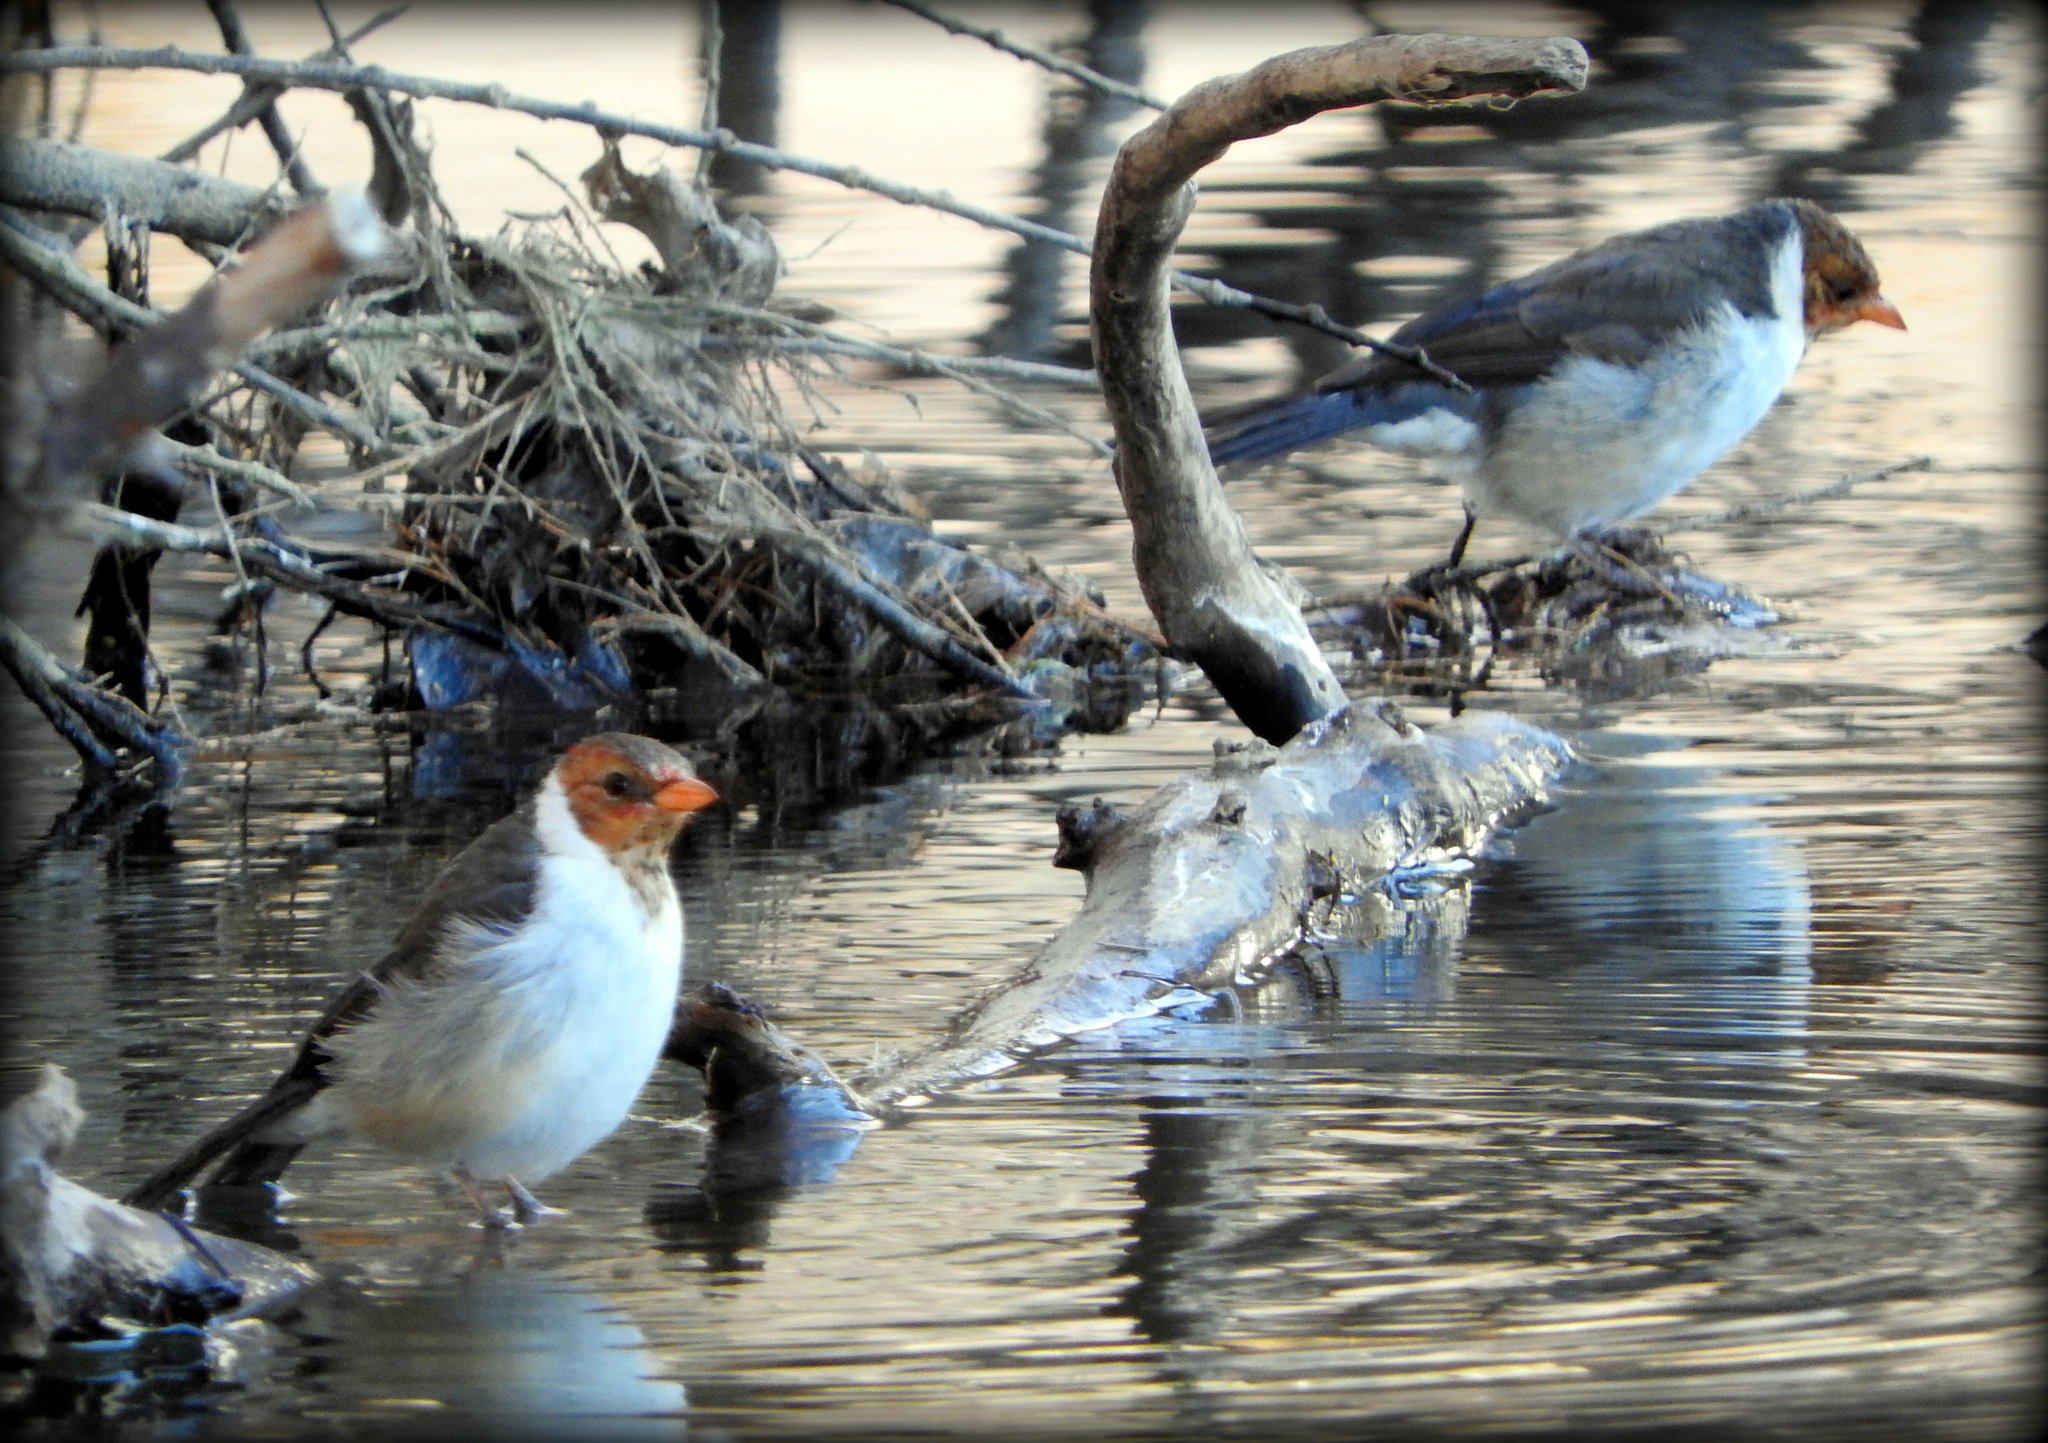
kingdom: Animalia
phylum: Chordata
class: Aves
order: Passeriformes
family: Thraupidae
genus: Paroaria
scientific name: Paroaria capitata
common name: Yellow-billed cardinal
